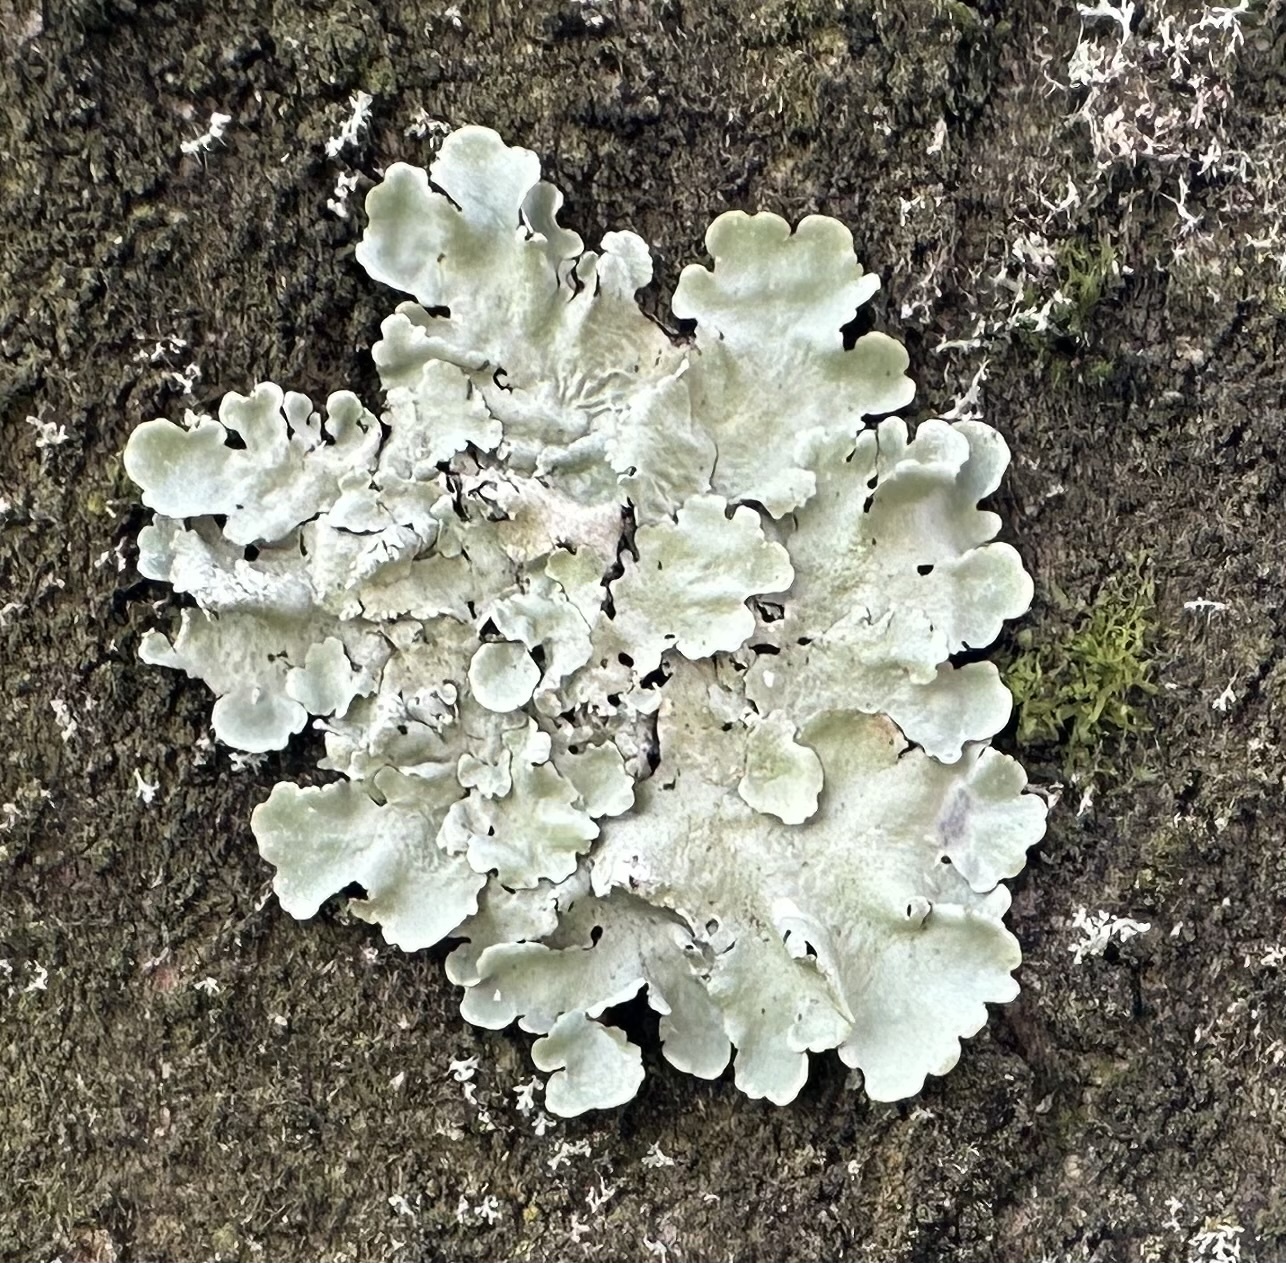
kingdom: Fungi
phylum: Ascomycota
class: Lecanoromycetes
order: Lecanorales
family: Parmeliaceae
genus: Flavoparmelia
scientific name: Flavoparmelia caperata
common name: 40-mile per hour lichen
